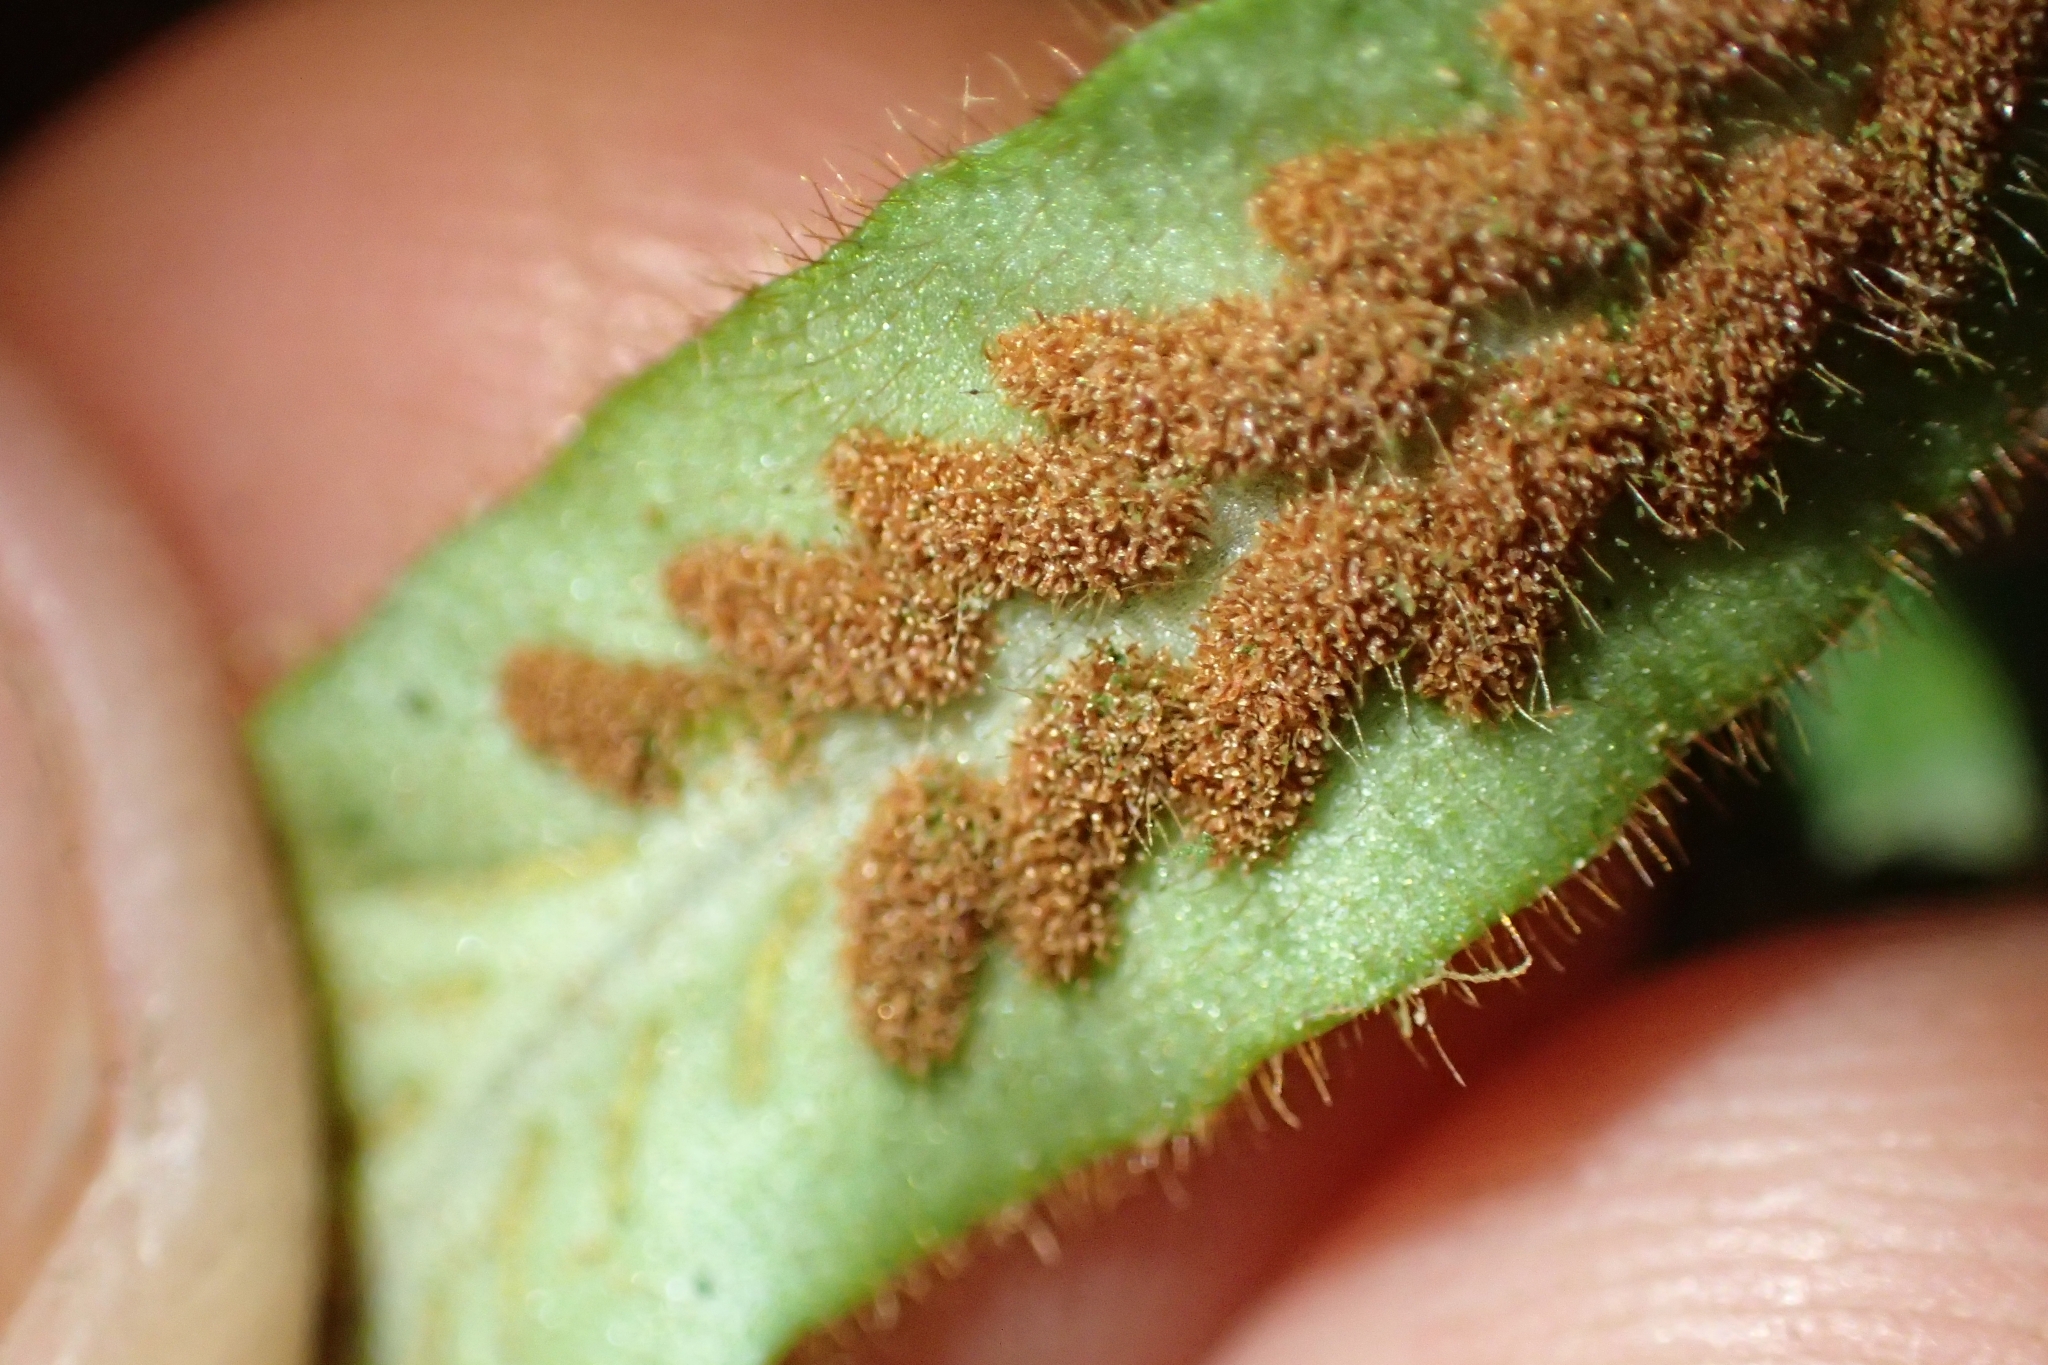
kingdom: Plantae
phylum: Tracheophyta
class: Polypodiopsida
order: Polypodiales
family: Polypodiaceae
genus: Notogrammitis
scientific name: Notogrammitis pseudociliata
